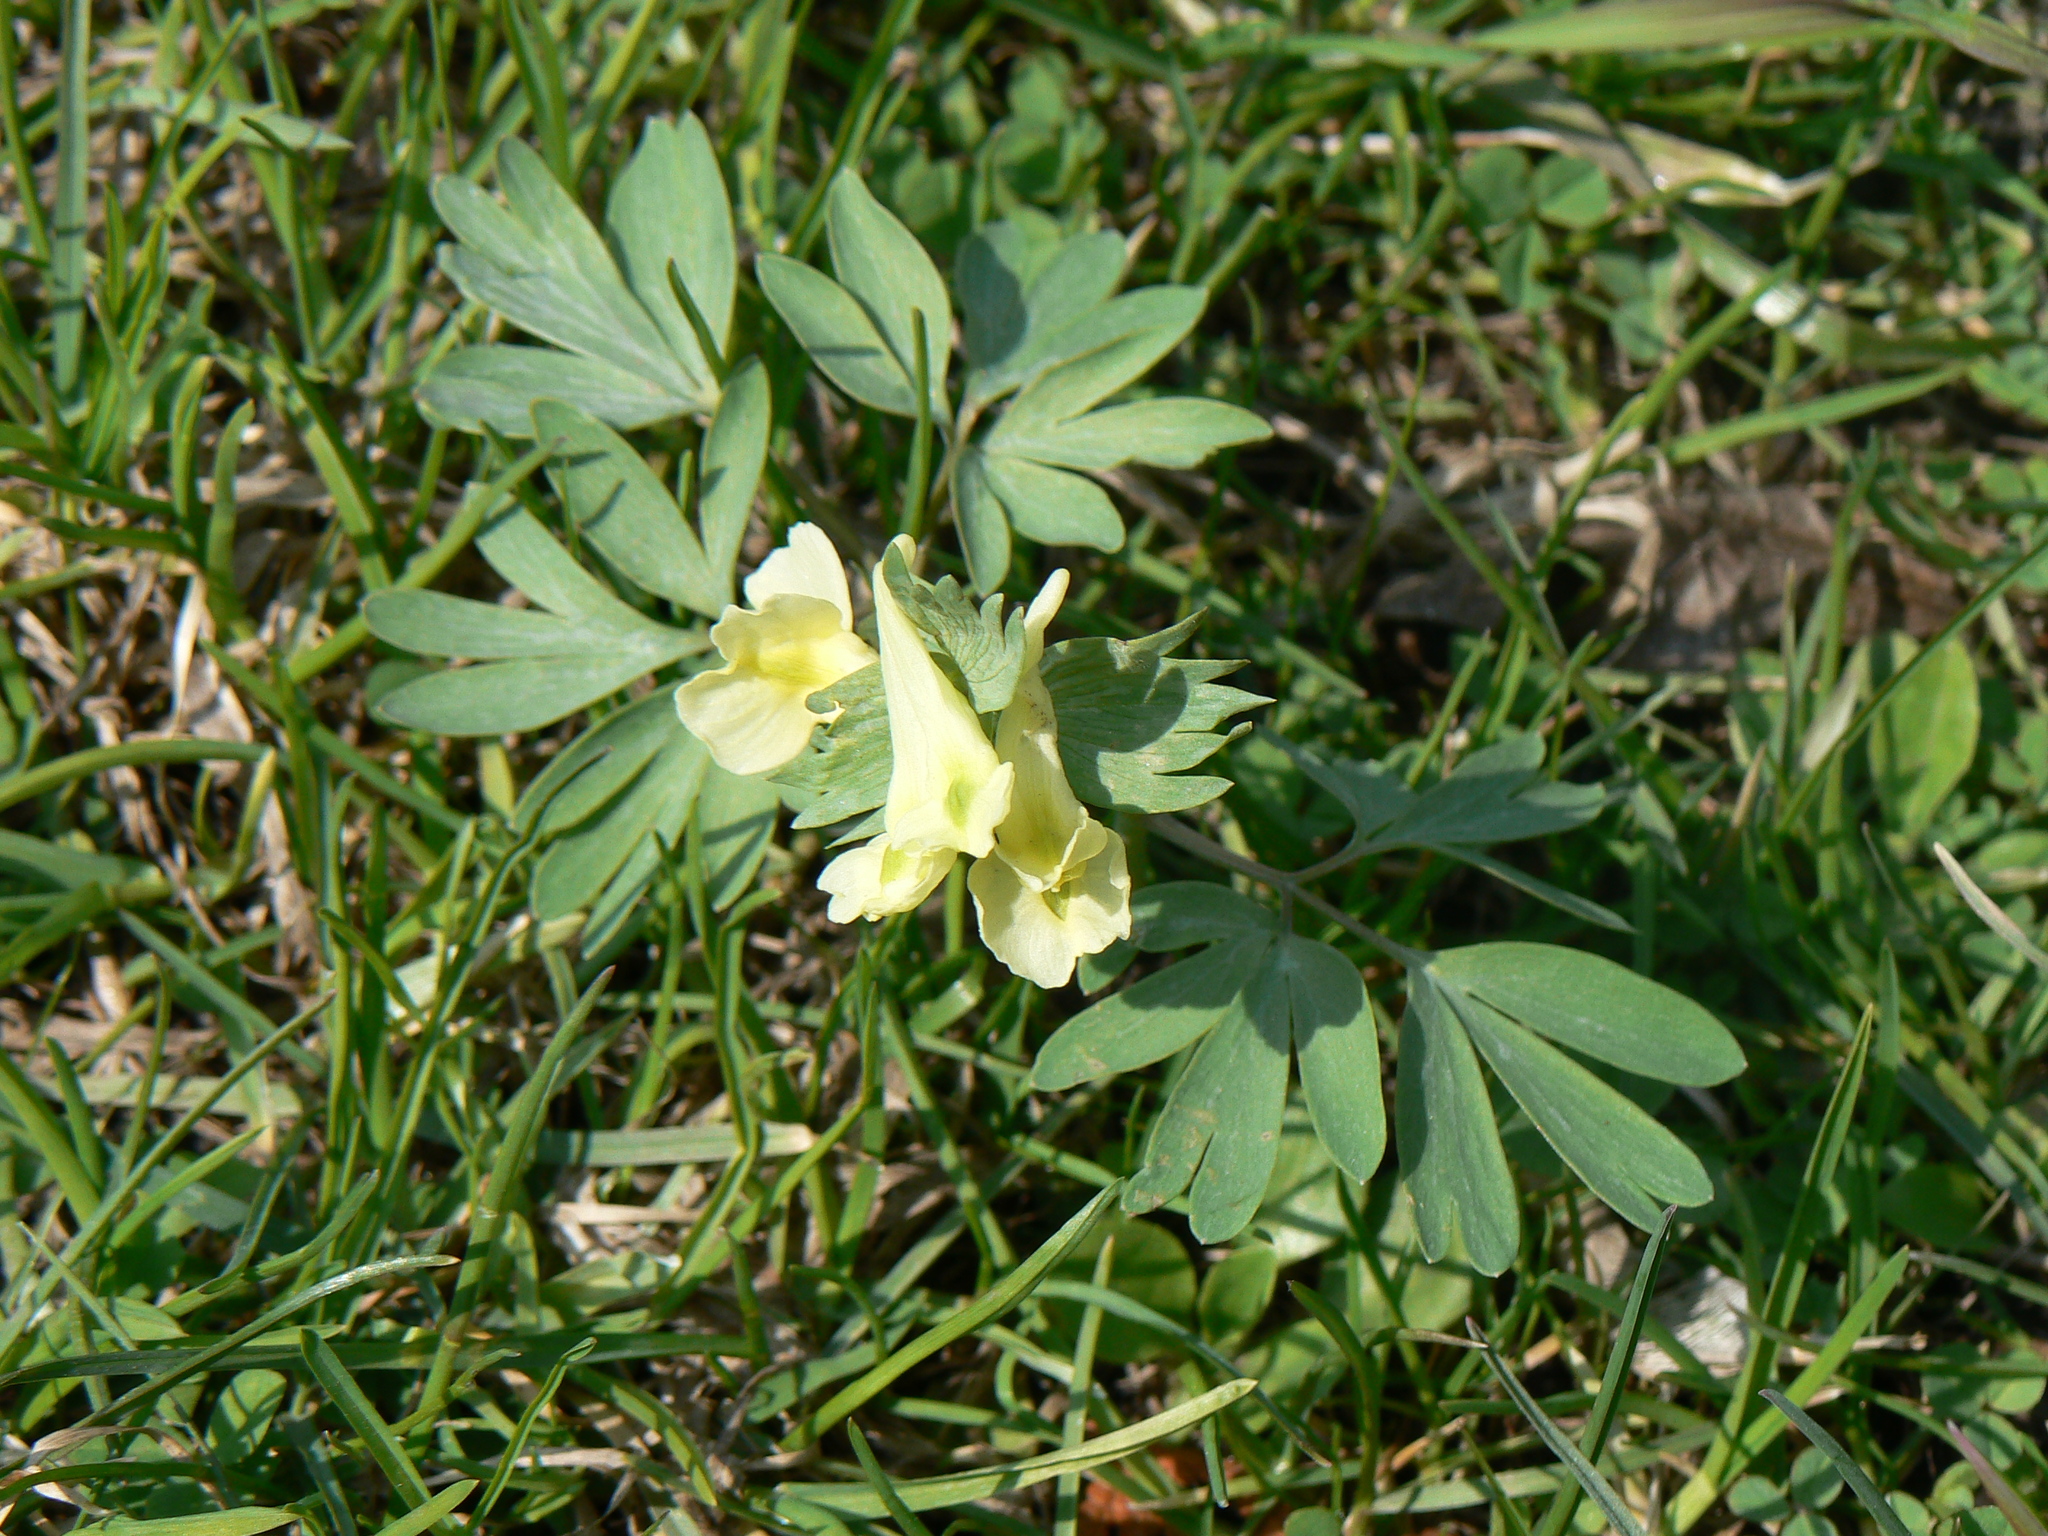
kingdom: Plantae
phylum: Tracheophyta
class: Magnoliopsida
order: Ranunculales
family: Papaveraceae
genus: Corydalis
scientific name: Corydalis bracteata
